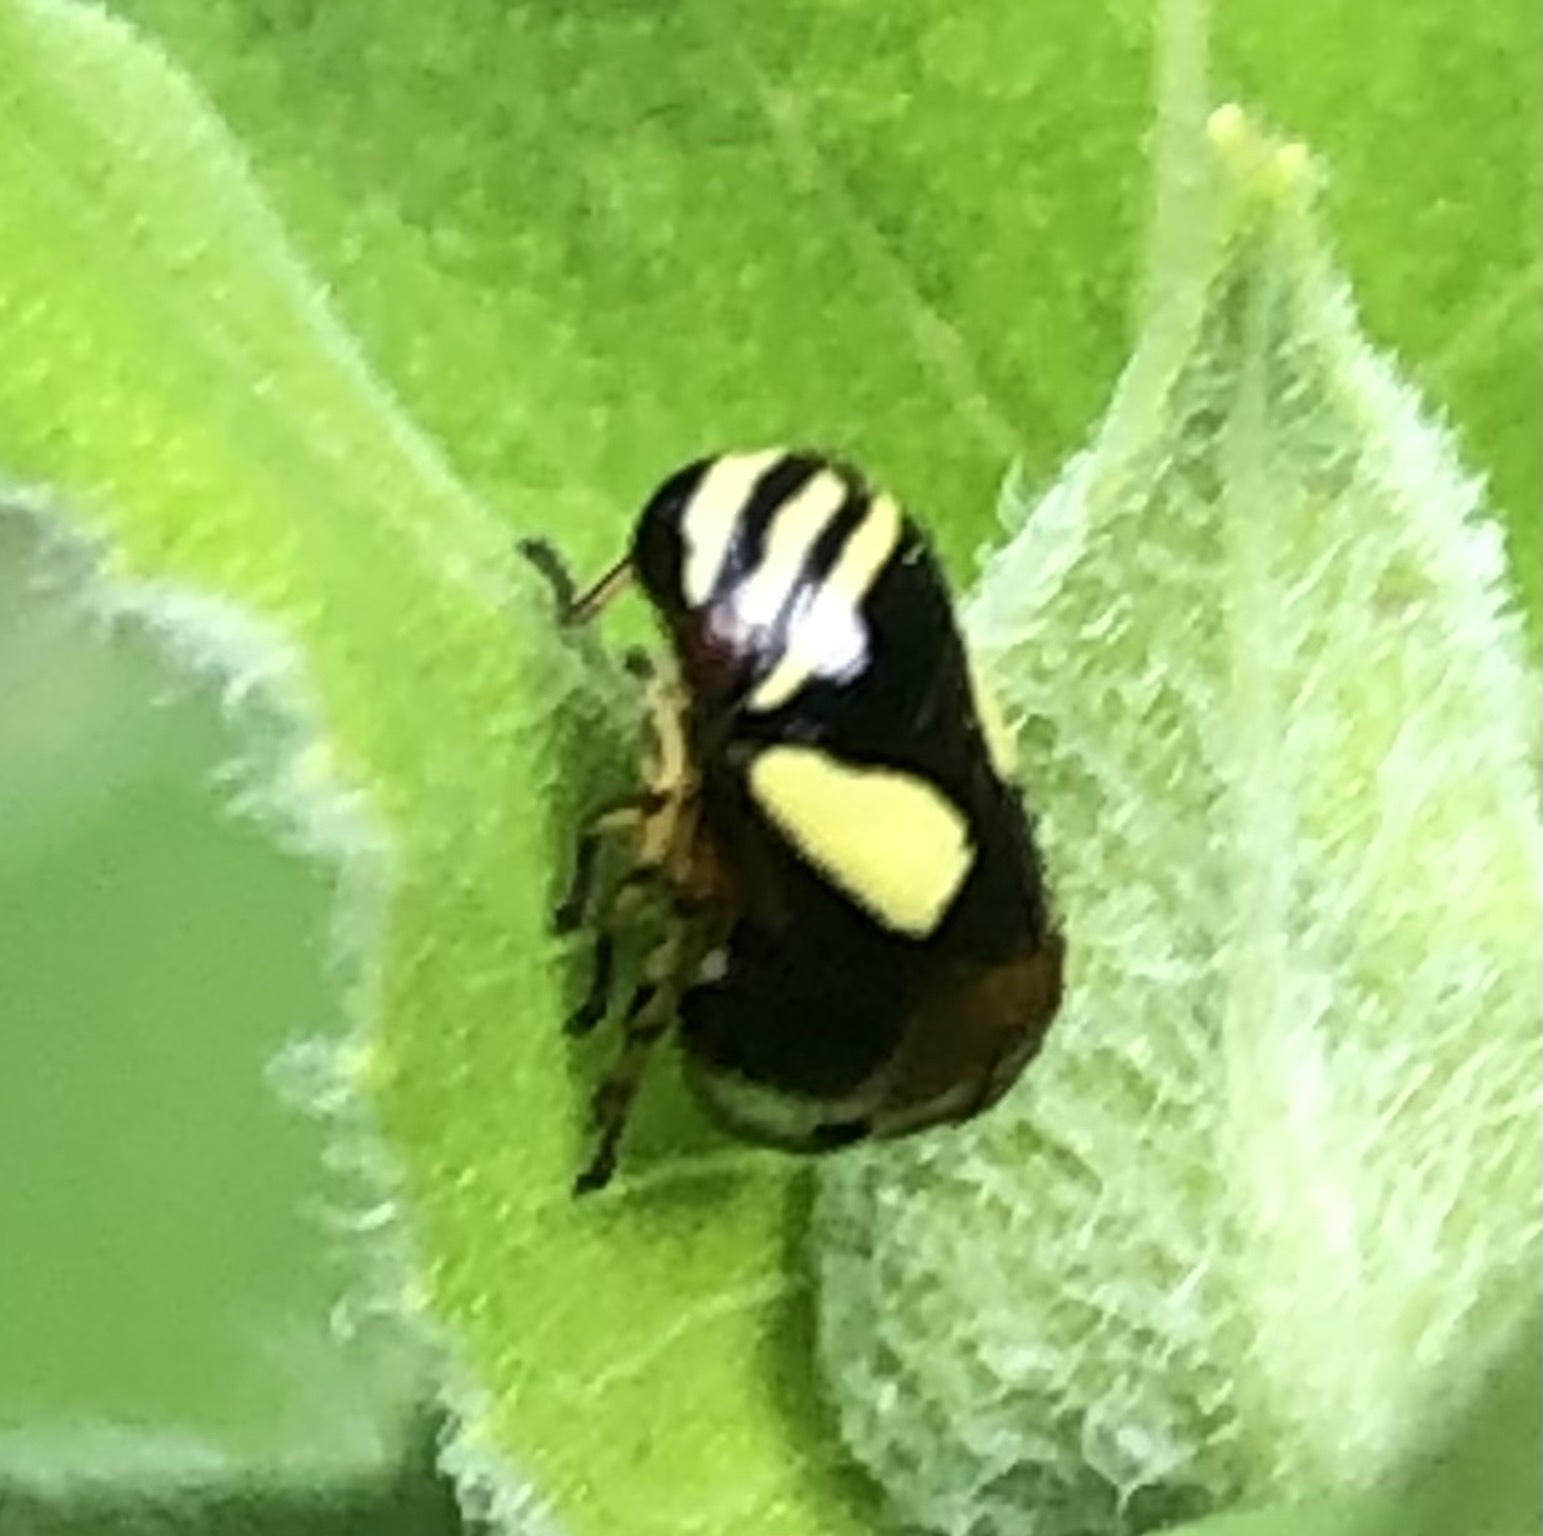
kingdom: Animalia
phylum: Arthropoda
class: Insecta
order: Hemiptera
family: Clastopteridae
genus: Clastoptera
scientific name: Clastoptera proteus
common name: Dogwood spittlebug
